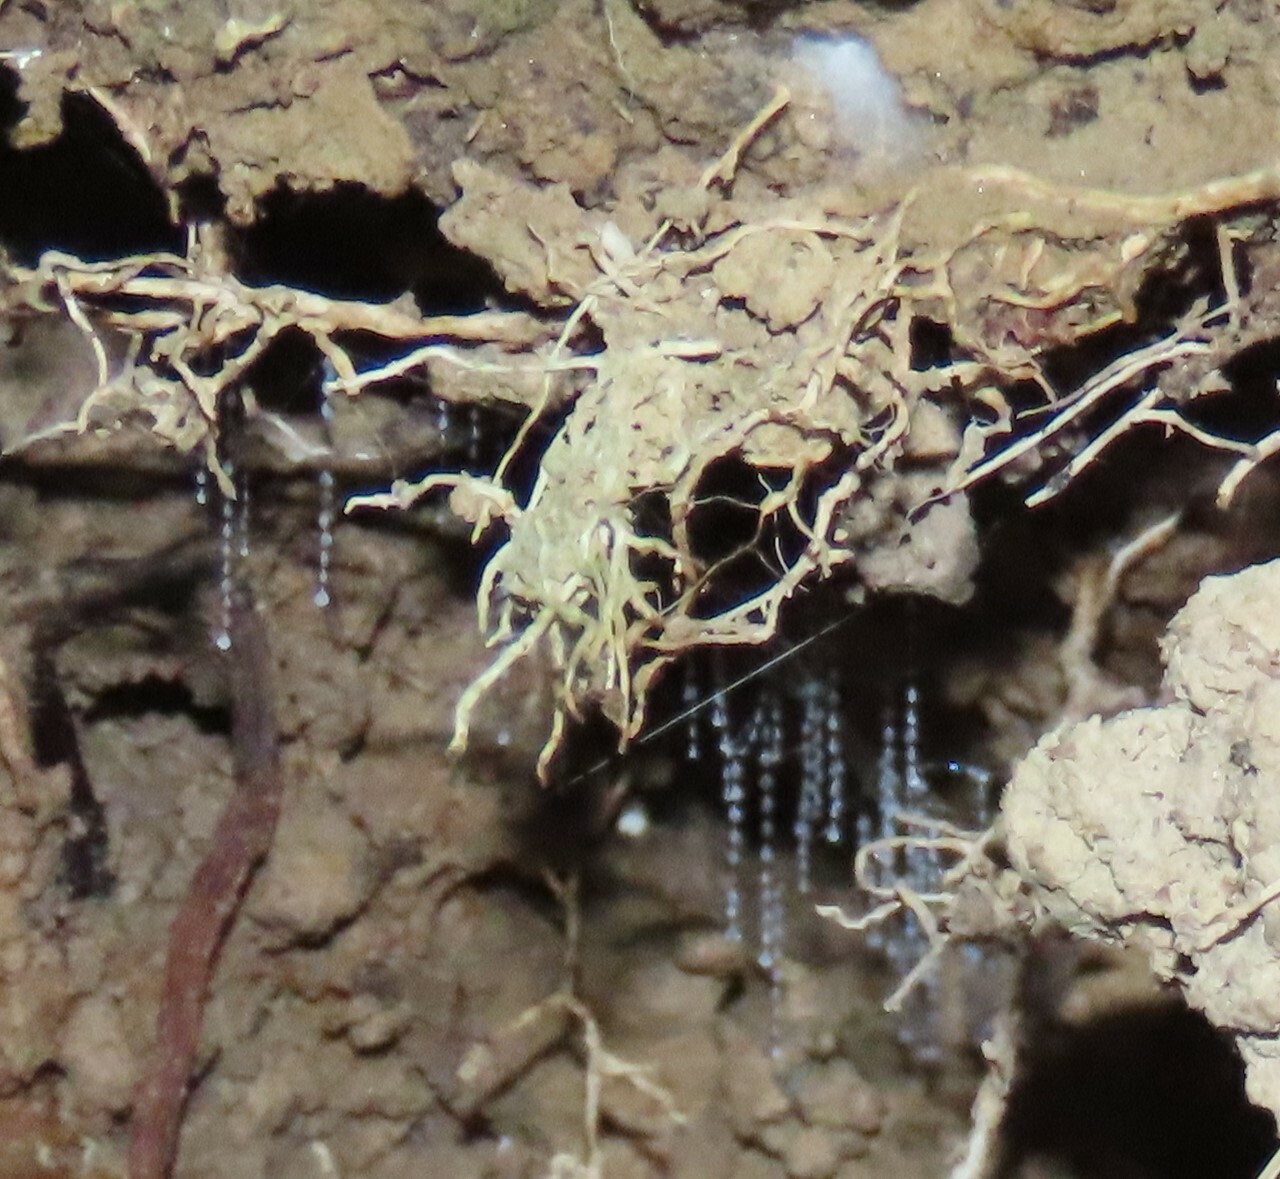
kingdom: Animalia
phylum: Arthropoda
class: Insecta
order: Diptera
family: Keroplatidae
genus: Arachnocampa
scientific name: Arachnocampa luminosa
